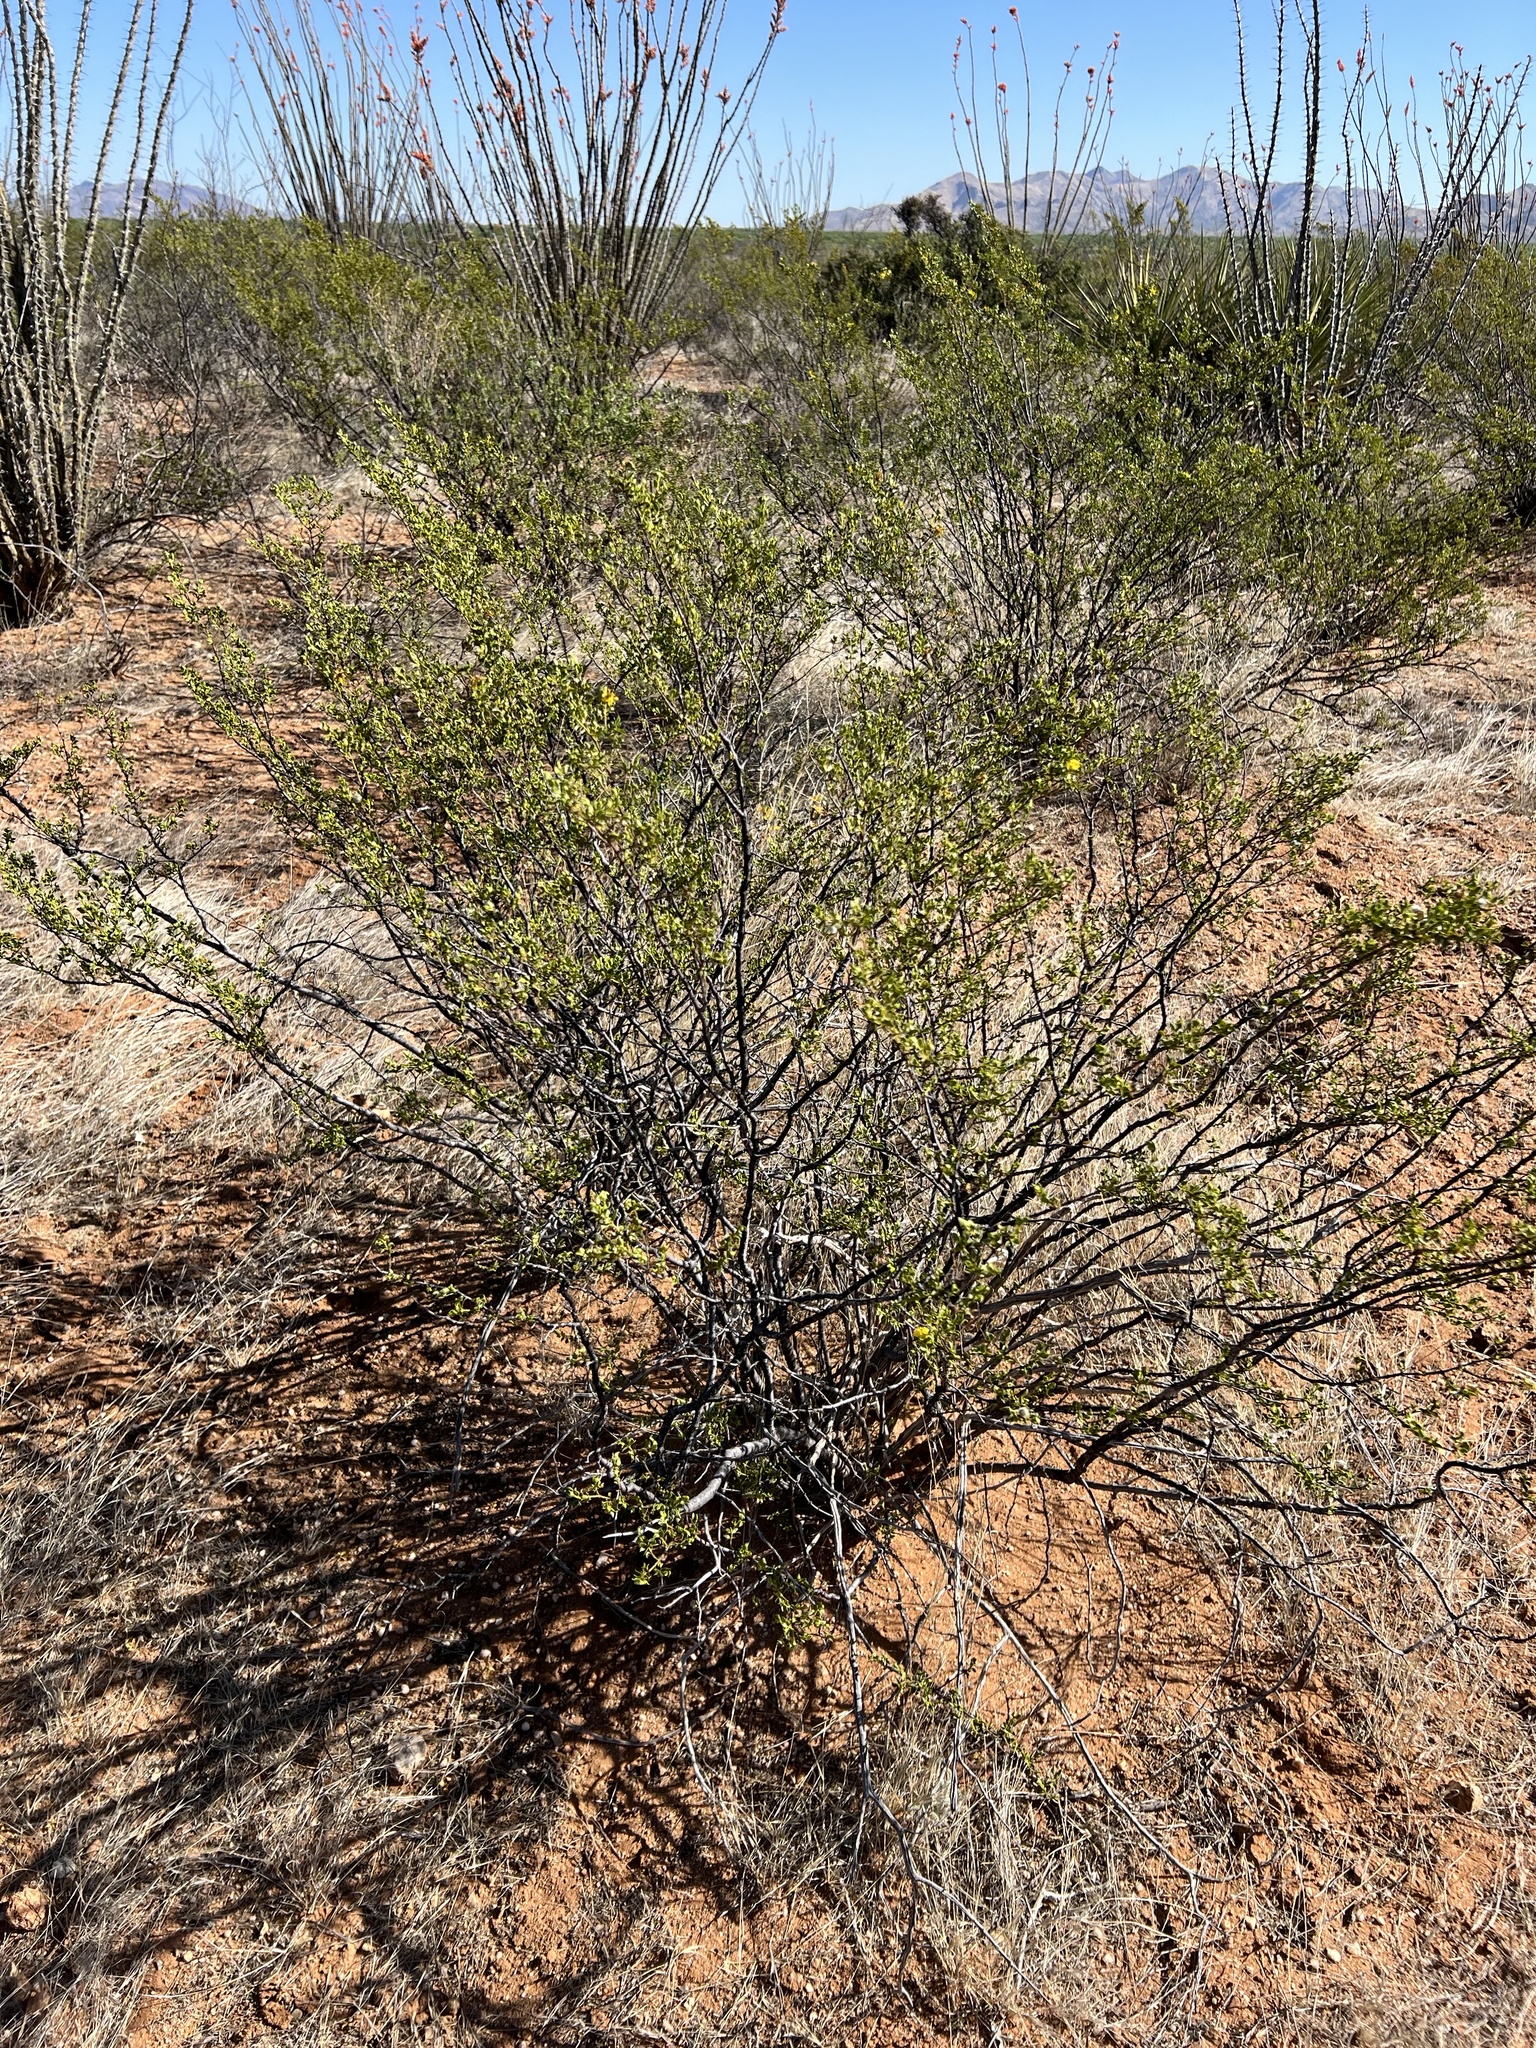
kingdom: Plantae
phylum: Tracheophyta
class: Magnoliopsida
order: Zygophyllales
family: Zygophyllaceae
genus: Larrea
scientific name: Larrea tridentata
